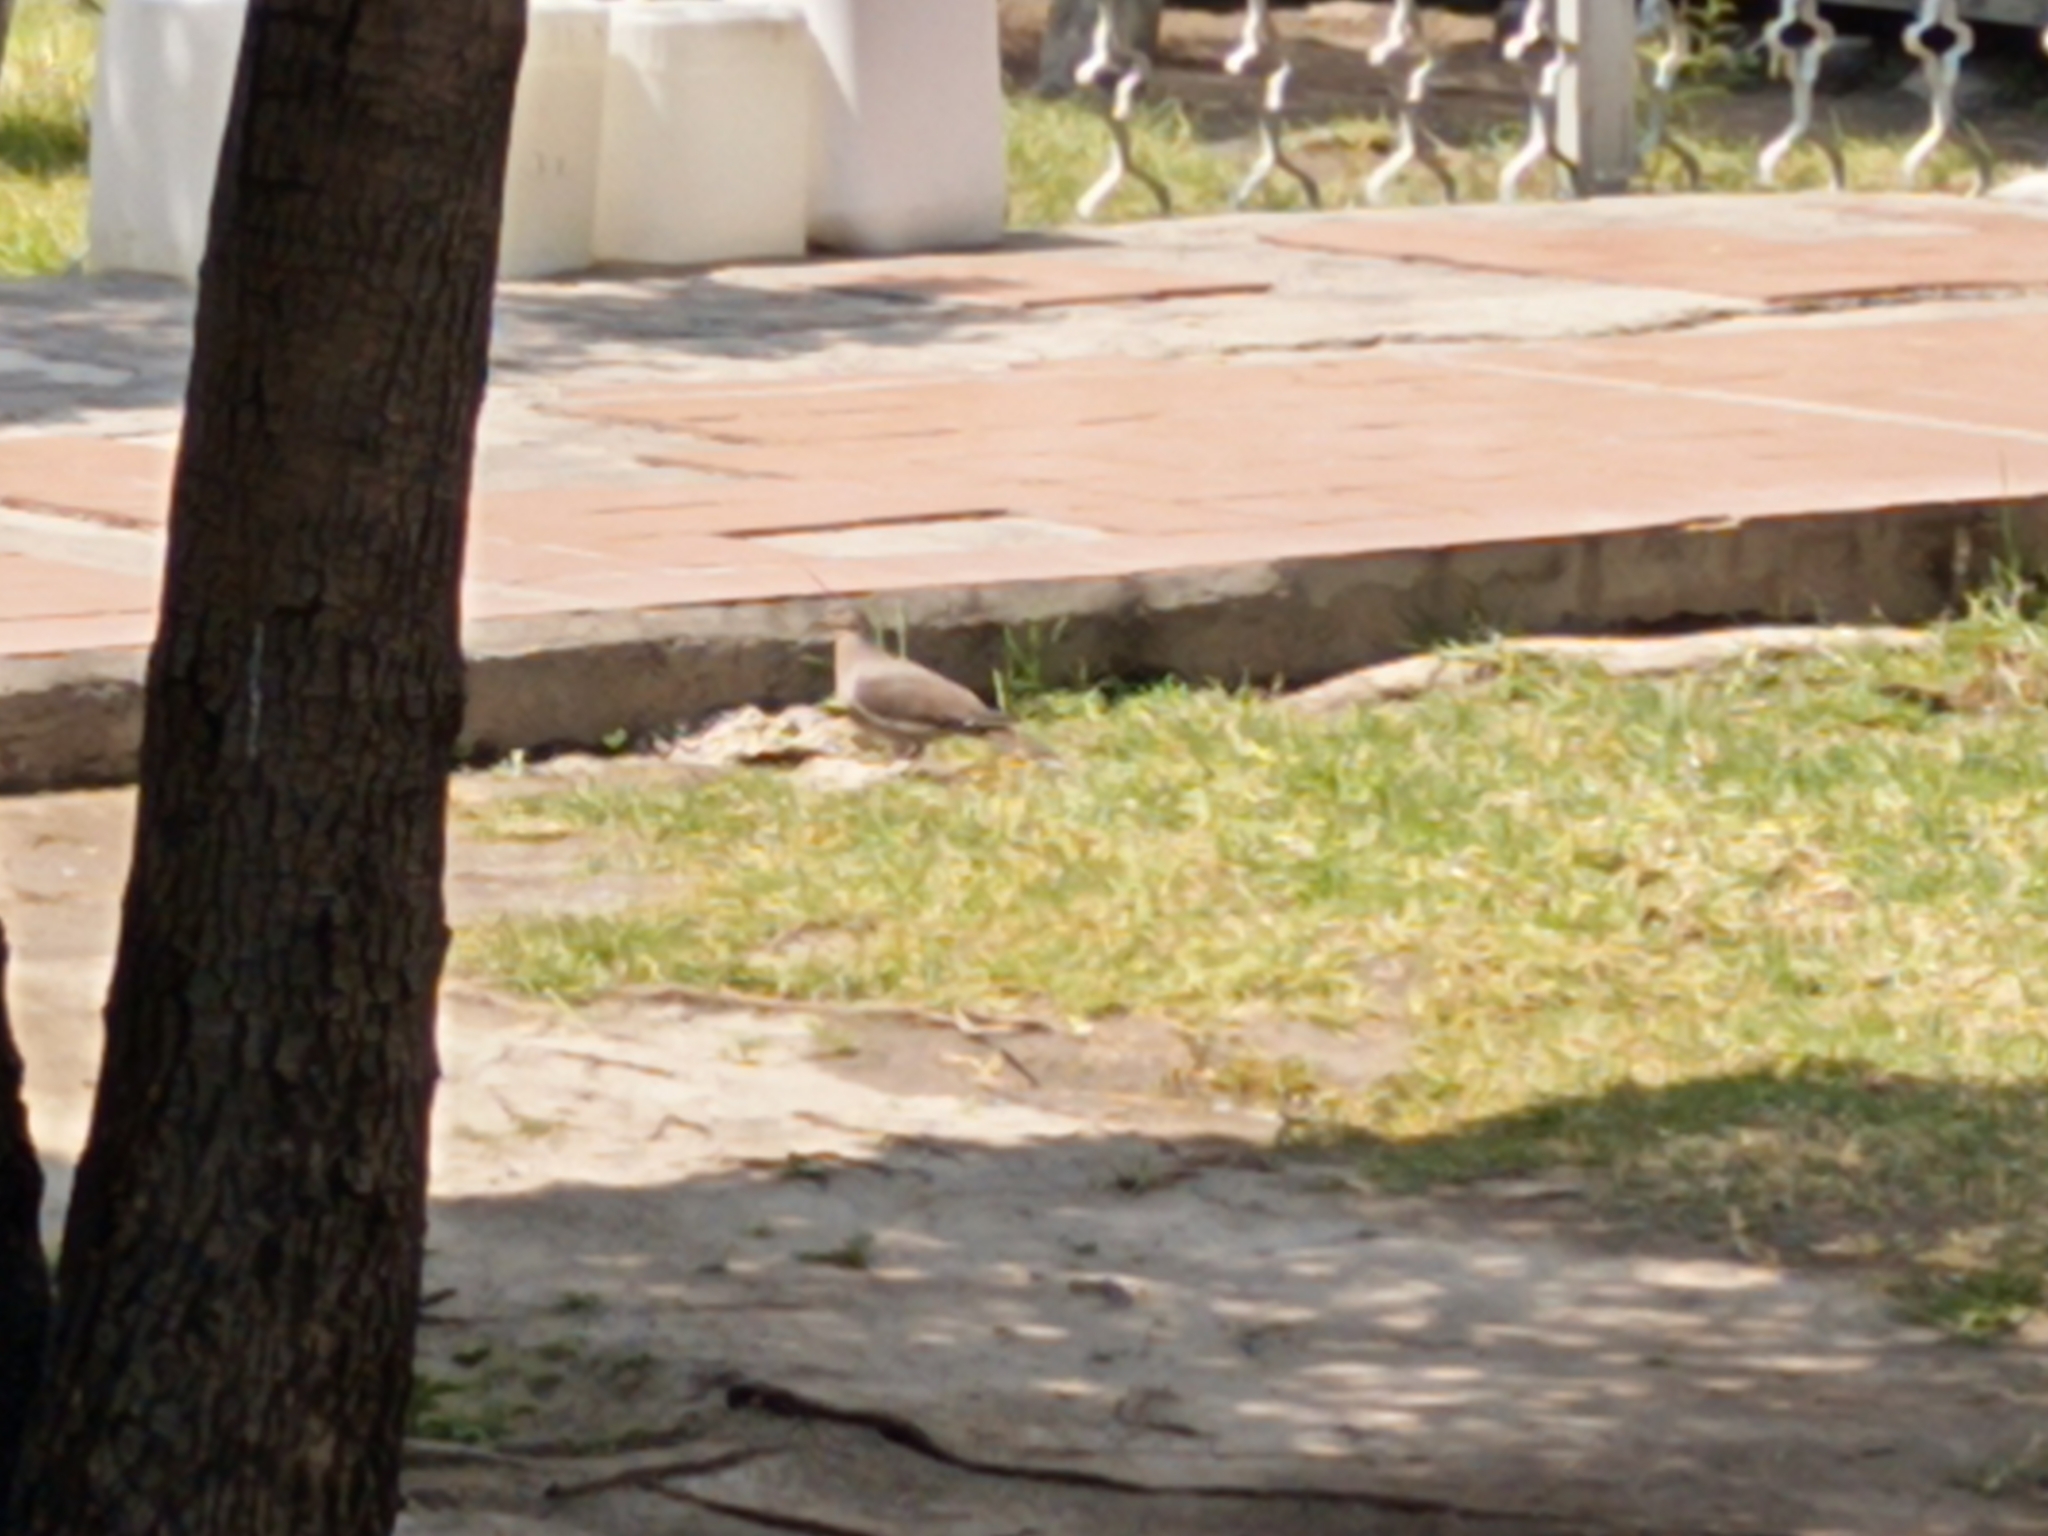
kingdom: Animalia
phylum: Chordata
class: Aves
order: Columbiformes
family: Columbidae
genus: Zenaida
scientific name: Zenaida asiatica
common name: White-winged dove
